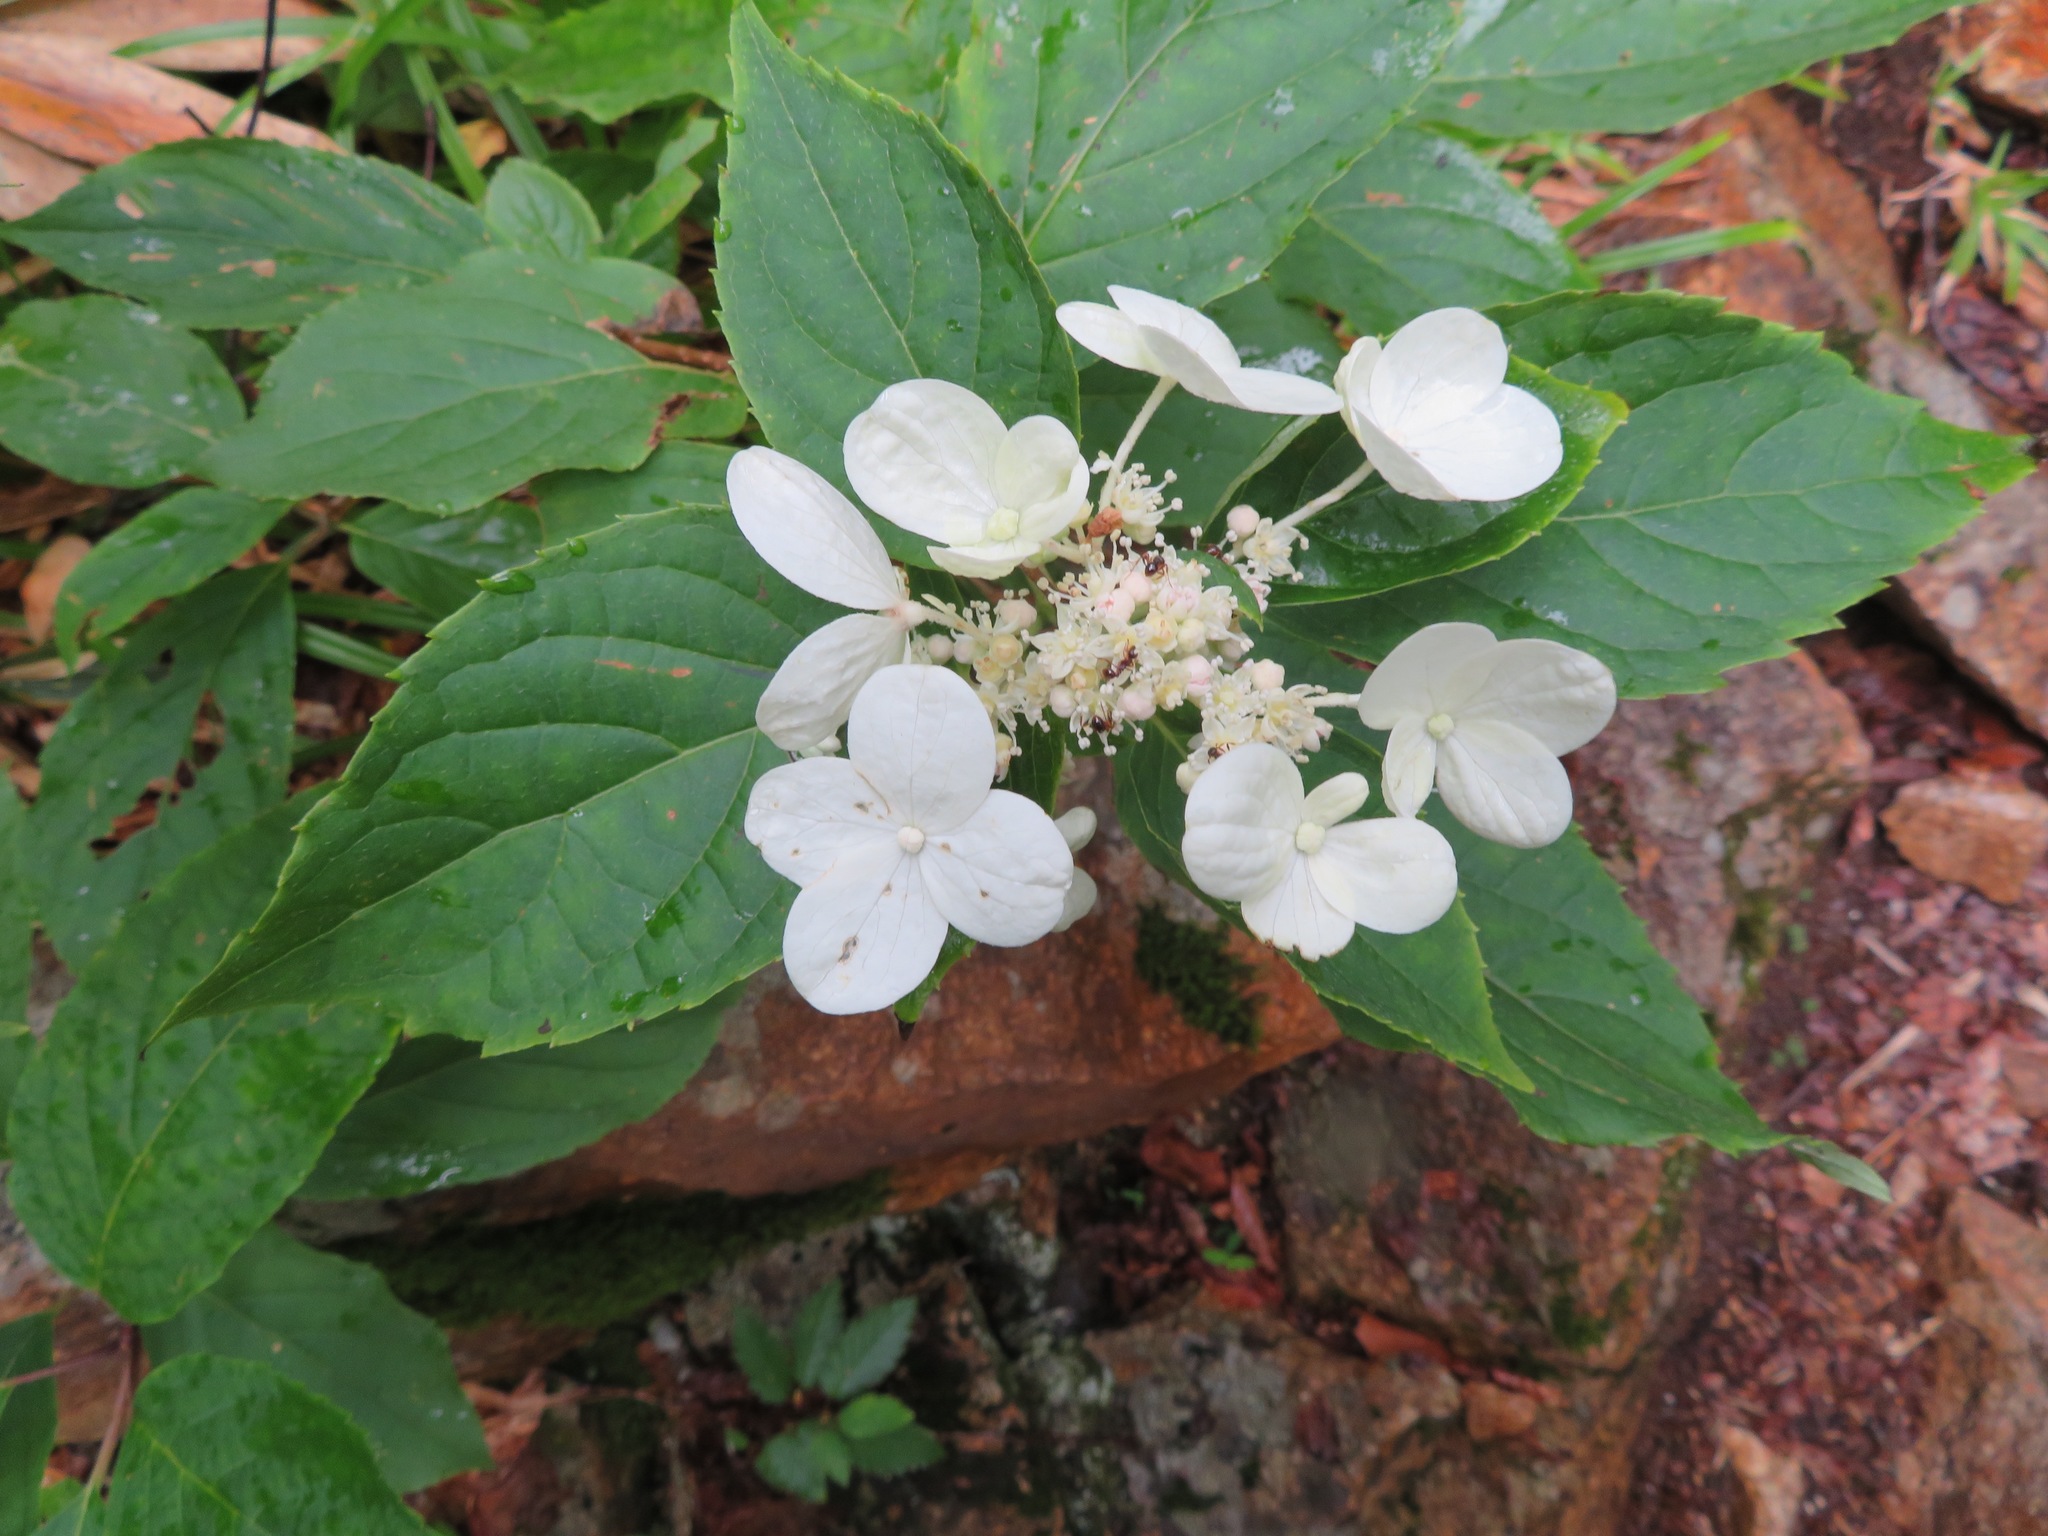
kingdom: Plantae
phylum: Tracheophyta
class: Magnoliopsida
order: Cornales
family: Hydrangeaceae
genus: Hydrangea
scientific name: Hydrangea paniculata
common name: Panicled hydrangea
